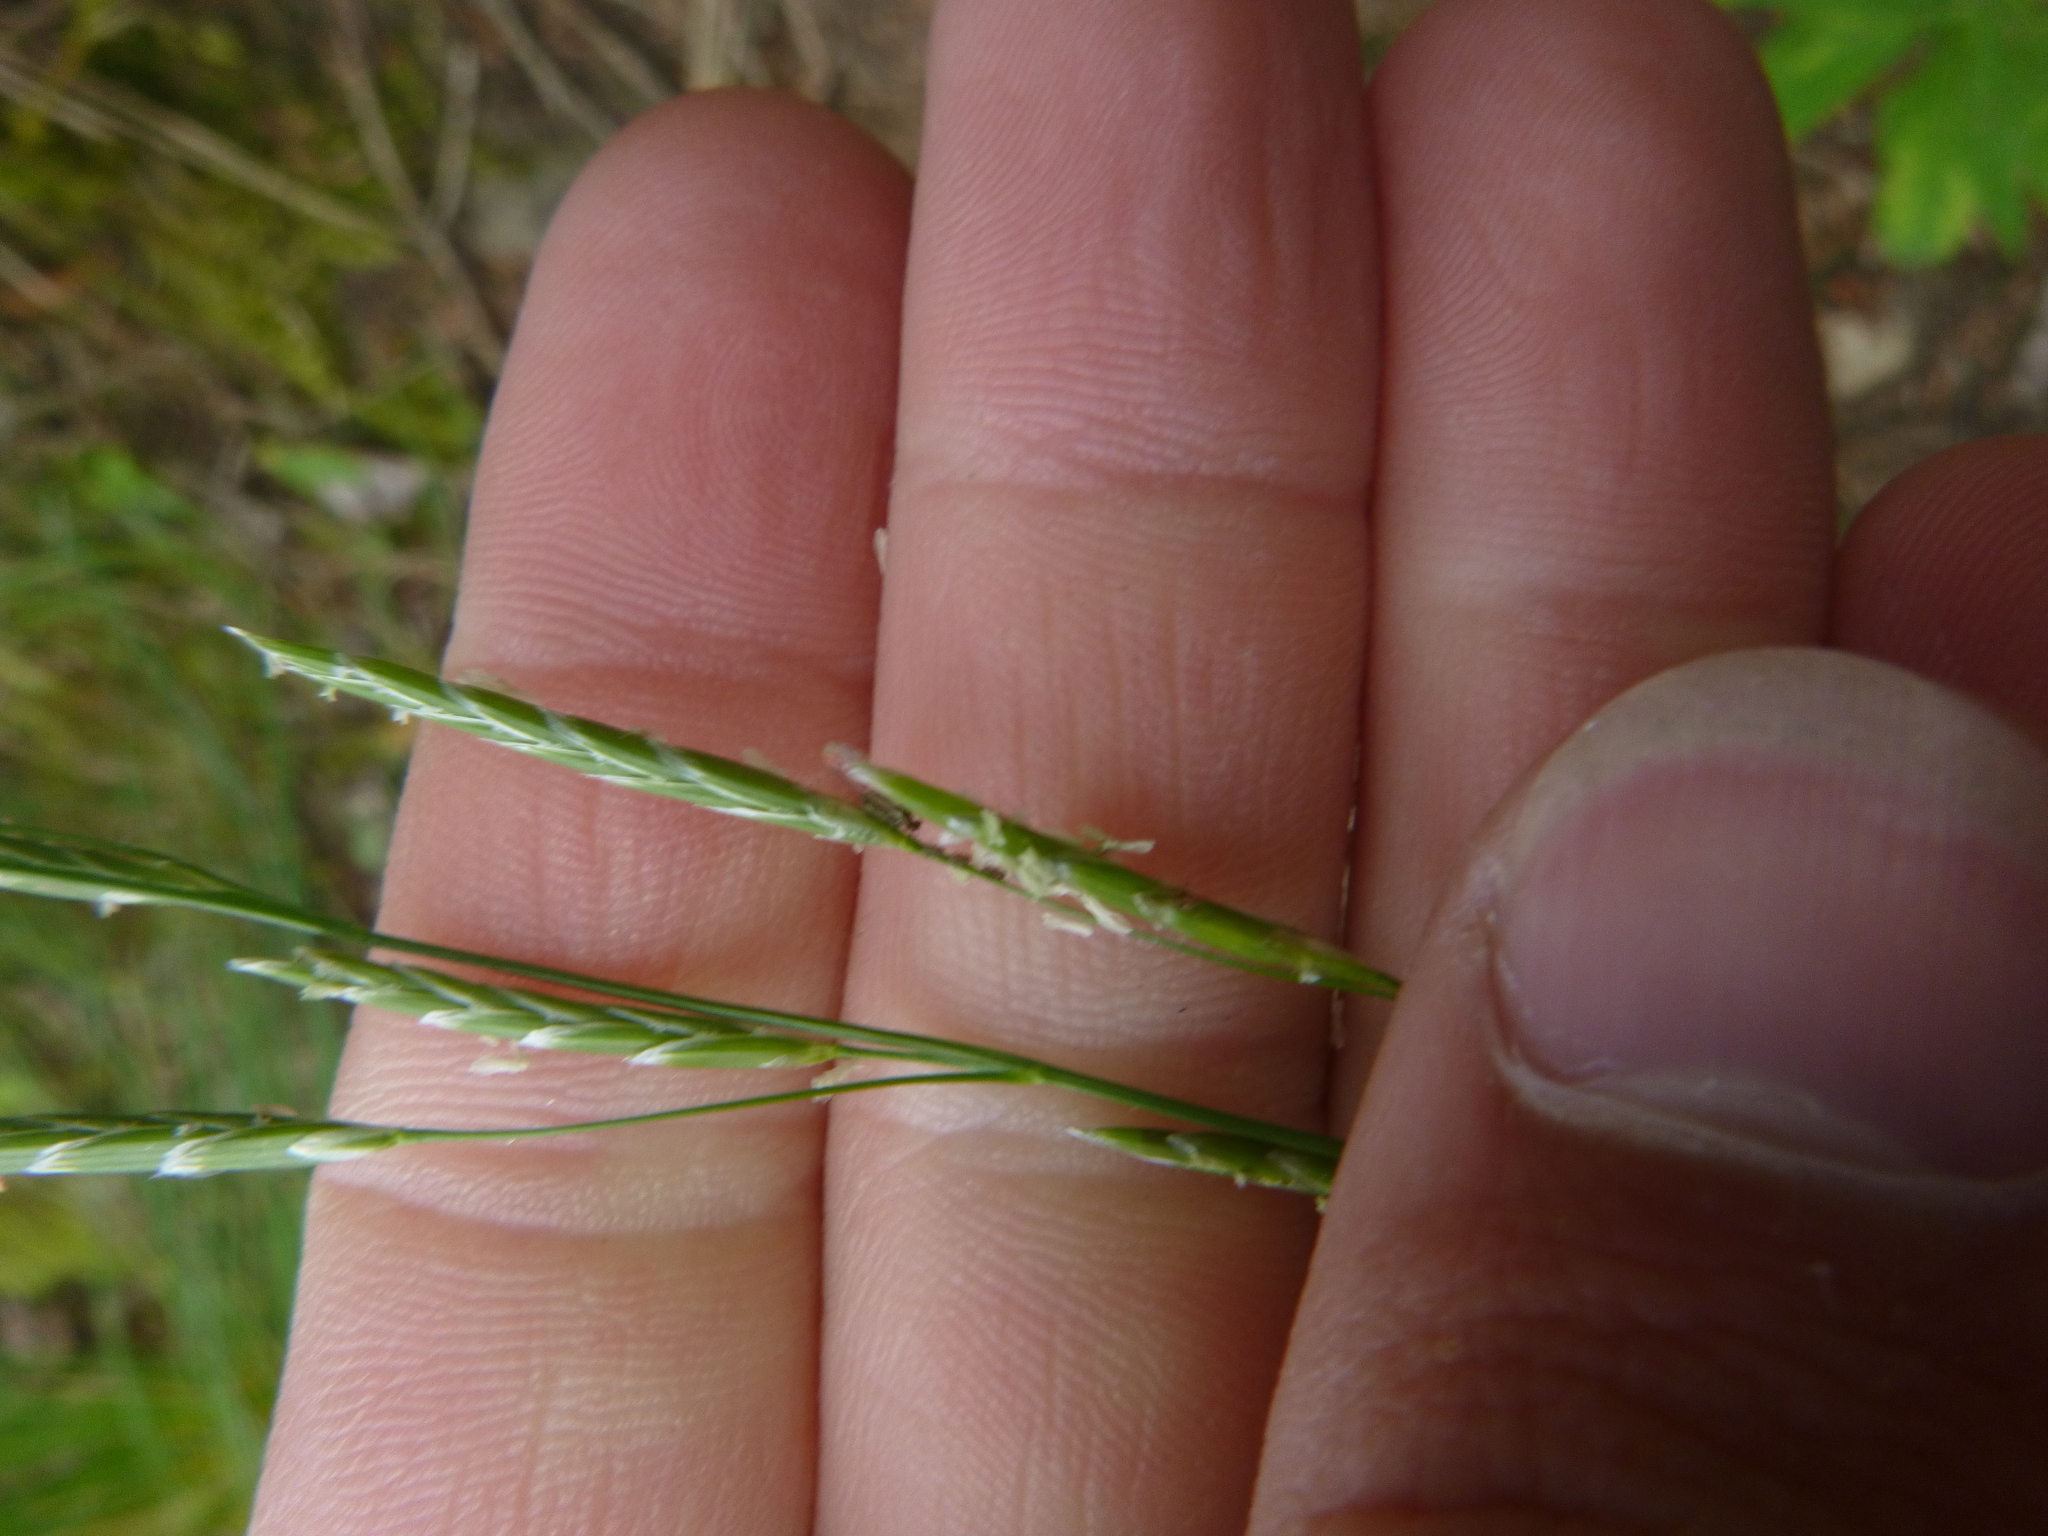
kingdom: Plantae
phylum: Tracheophyta
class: Liliopsida
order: Poales
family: Poaceae
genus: Glyceria
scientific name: Glyceria fluitans
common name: Floating sweet-grass
